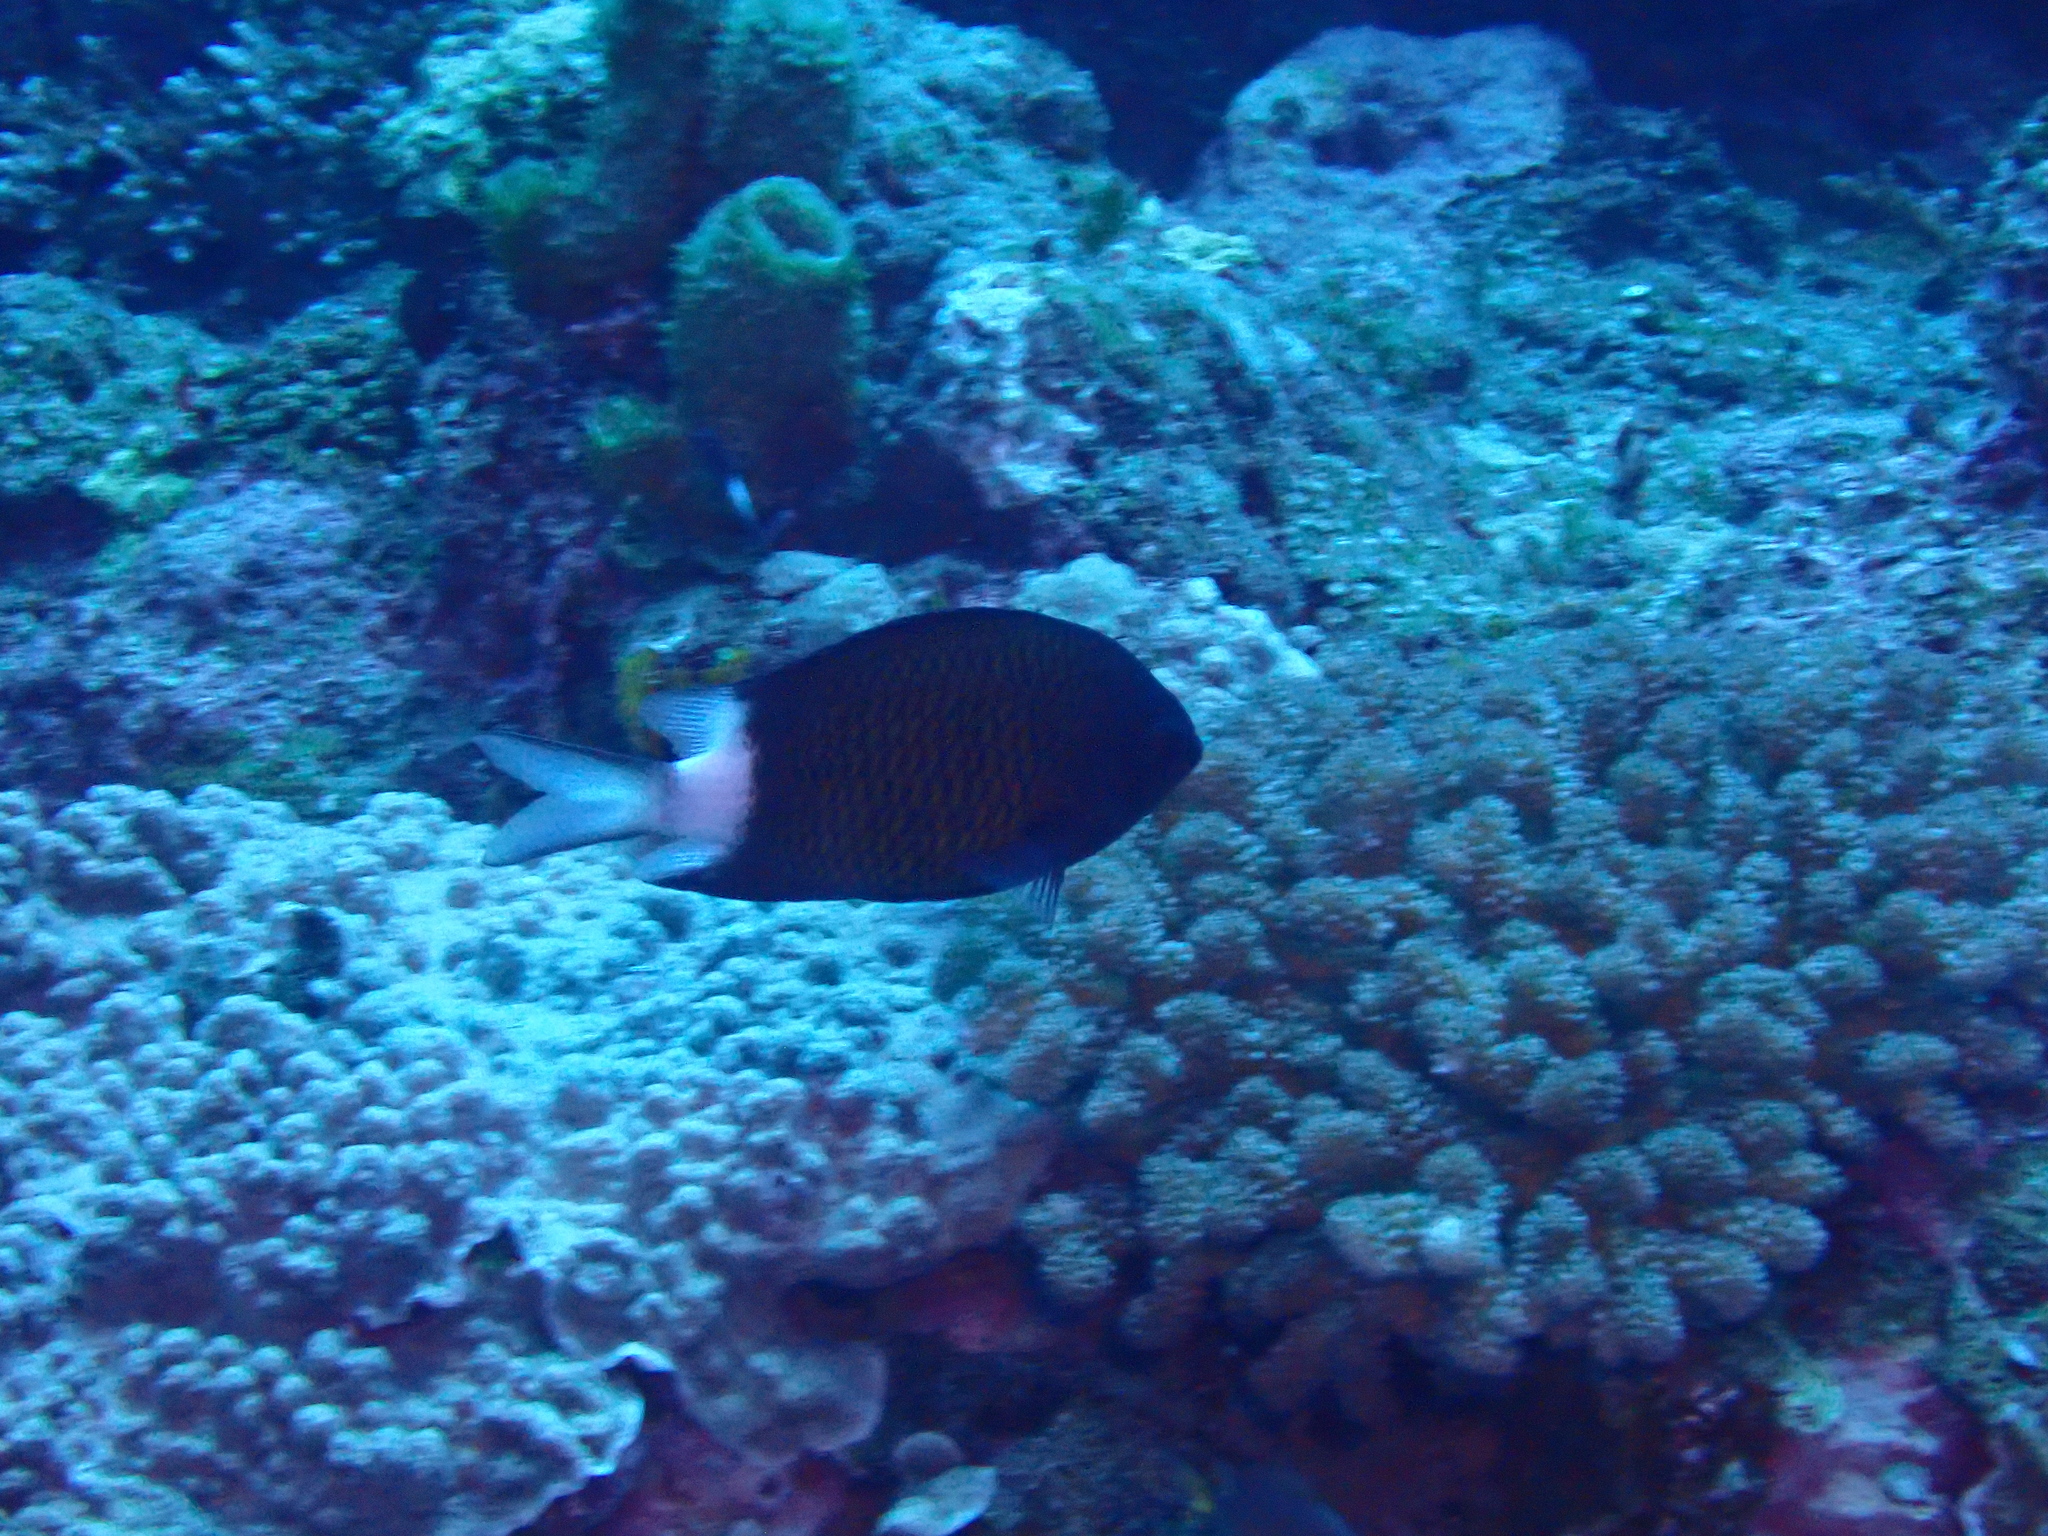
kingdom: Animalia
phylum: Chordata
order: Perciformes
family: Pomacentridae
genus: Chromis
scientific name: Chromis chrysura
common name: Stout-body chromis
